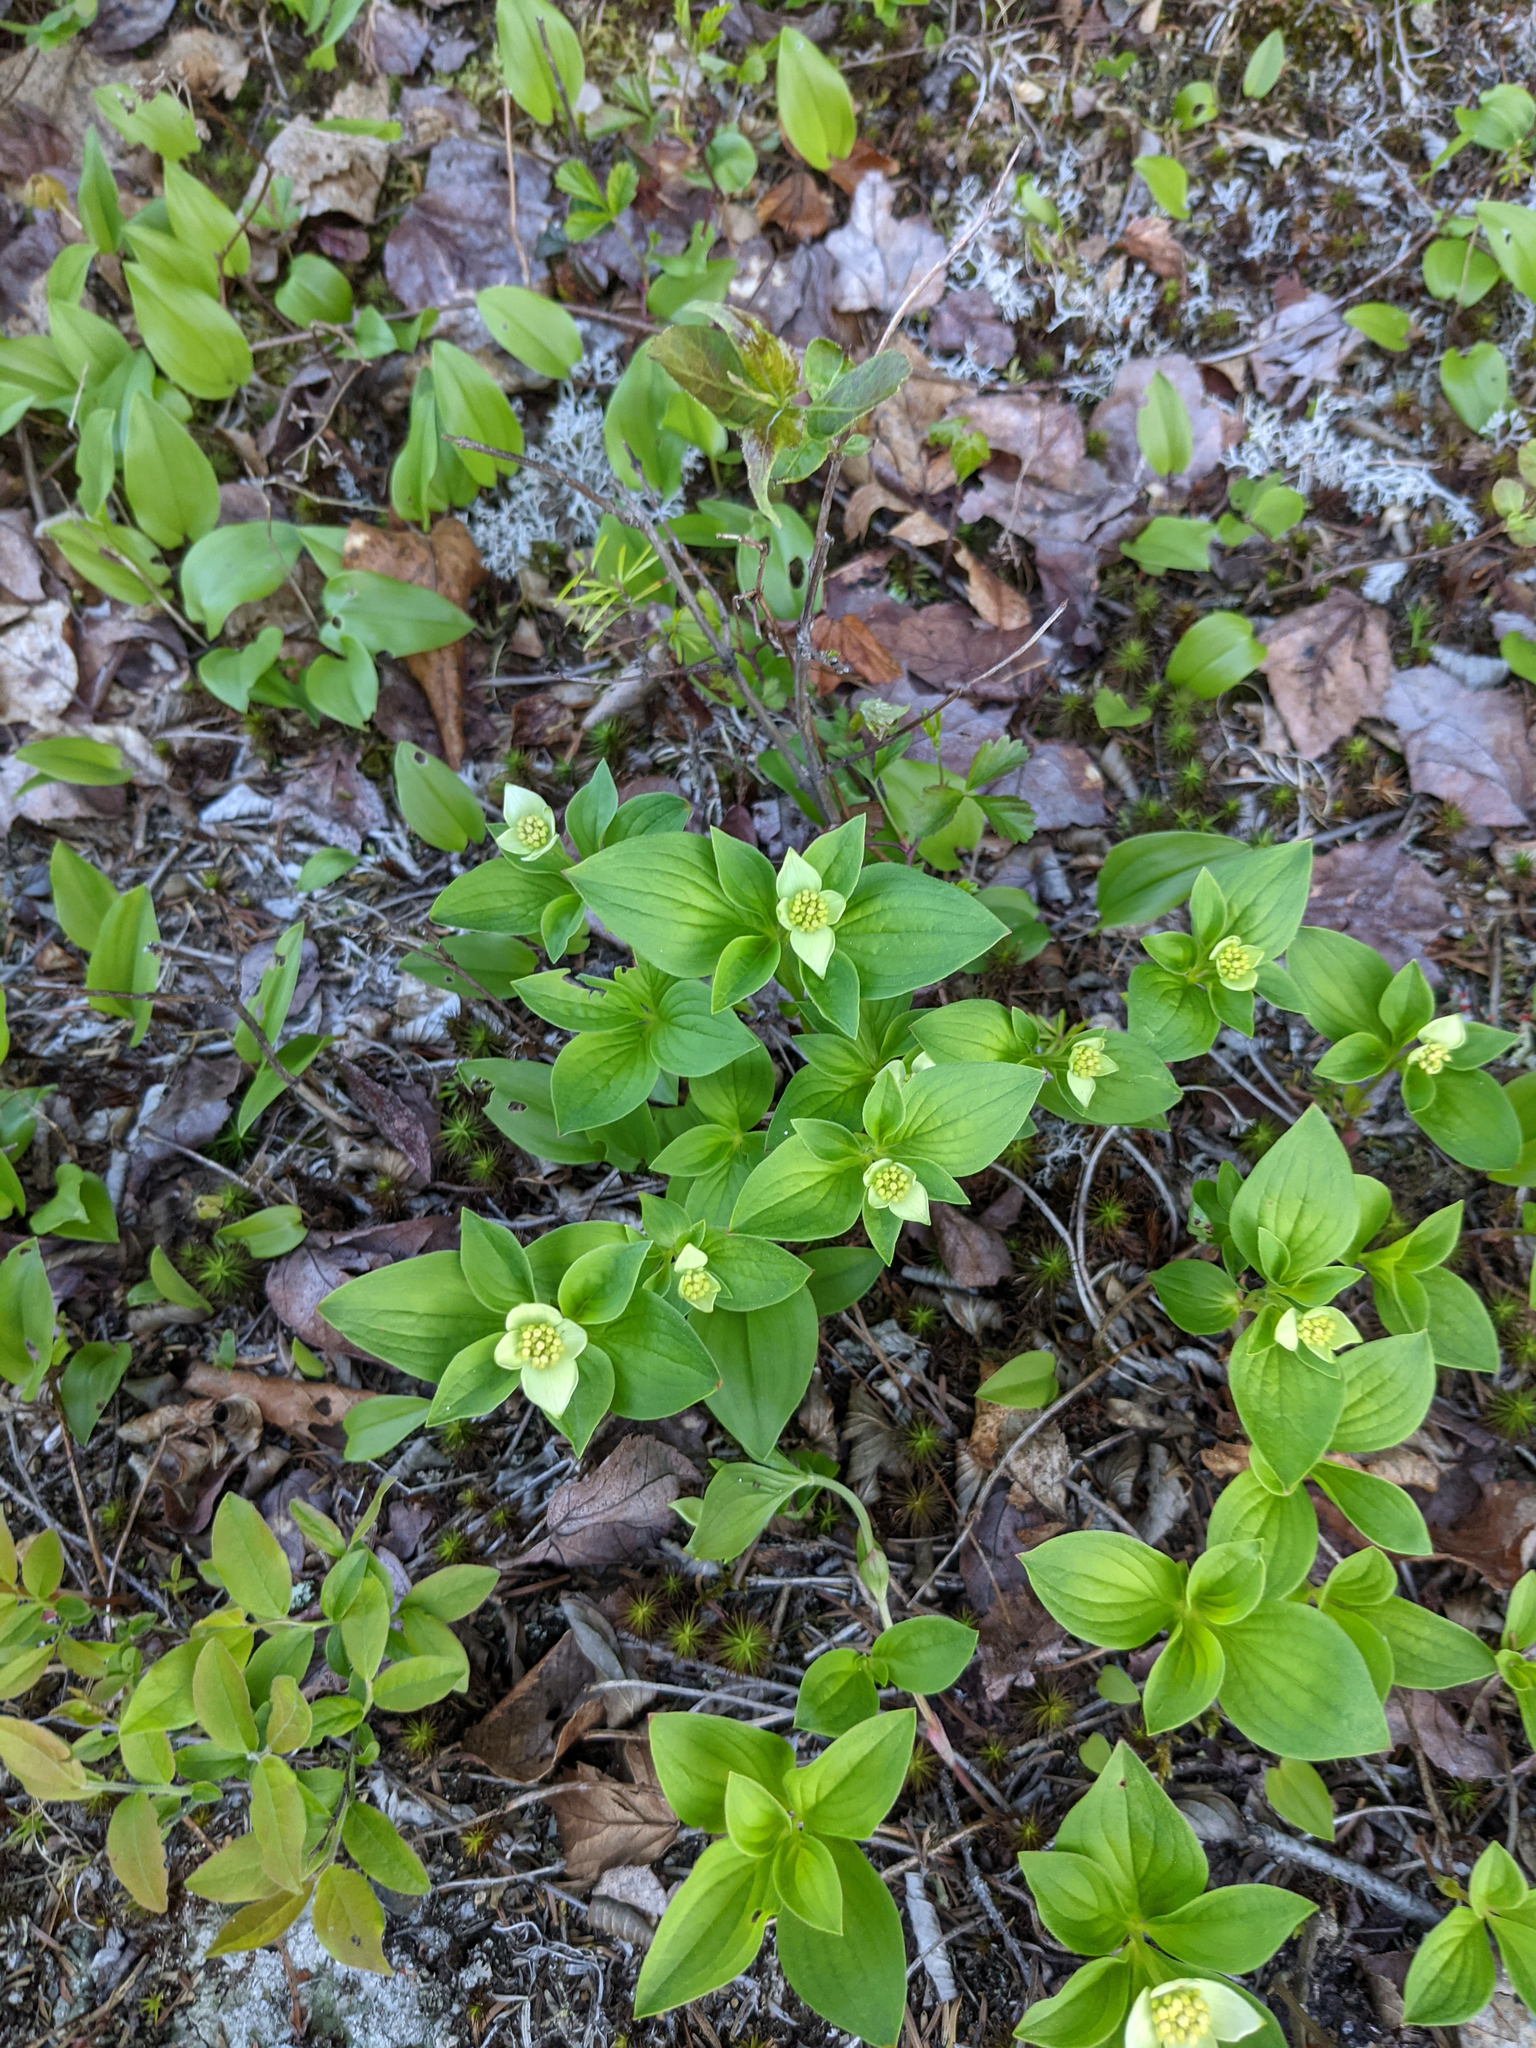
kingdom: Plantae
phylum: Tracheophyta
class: Magnoliopsida
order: Cornales
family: Cornaceae
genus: Cornus
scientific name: Cornus canadensis
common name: Creeping dogwood
